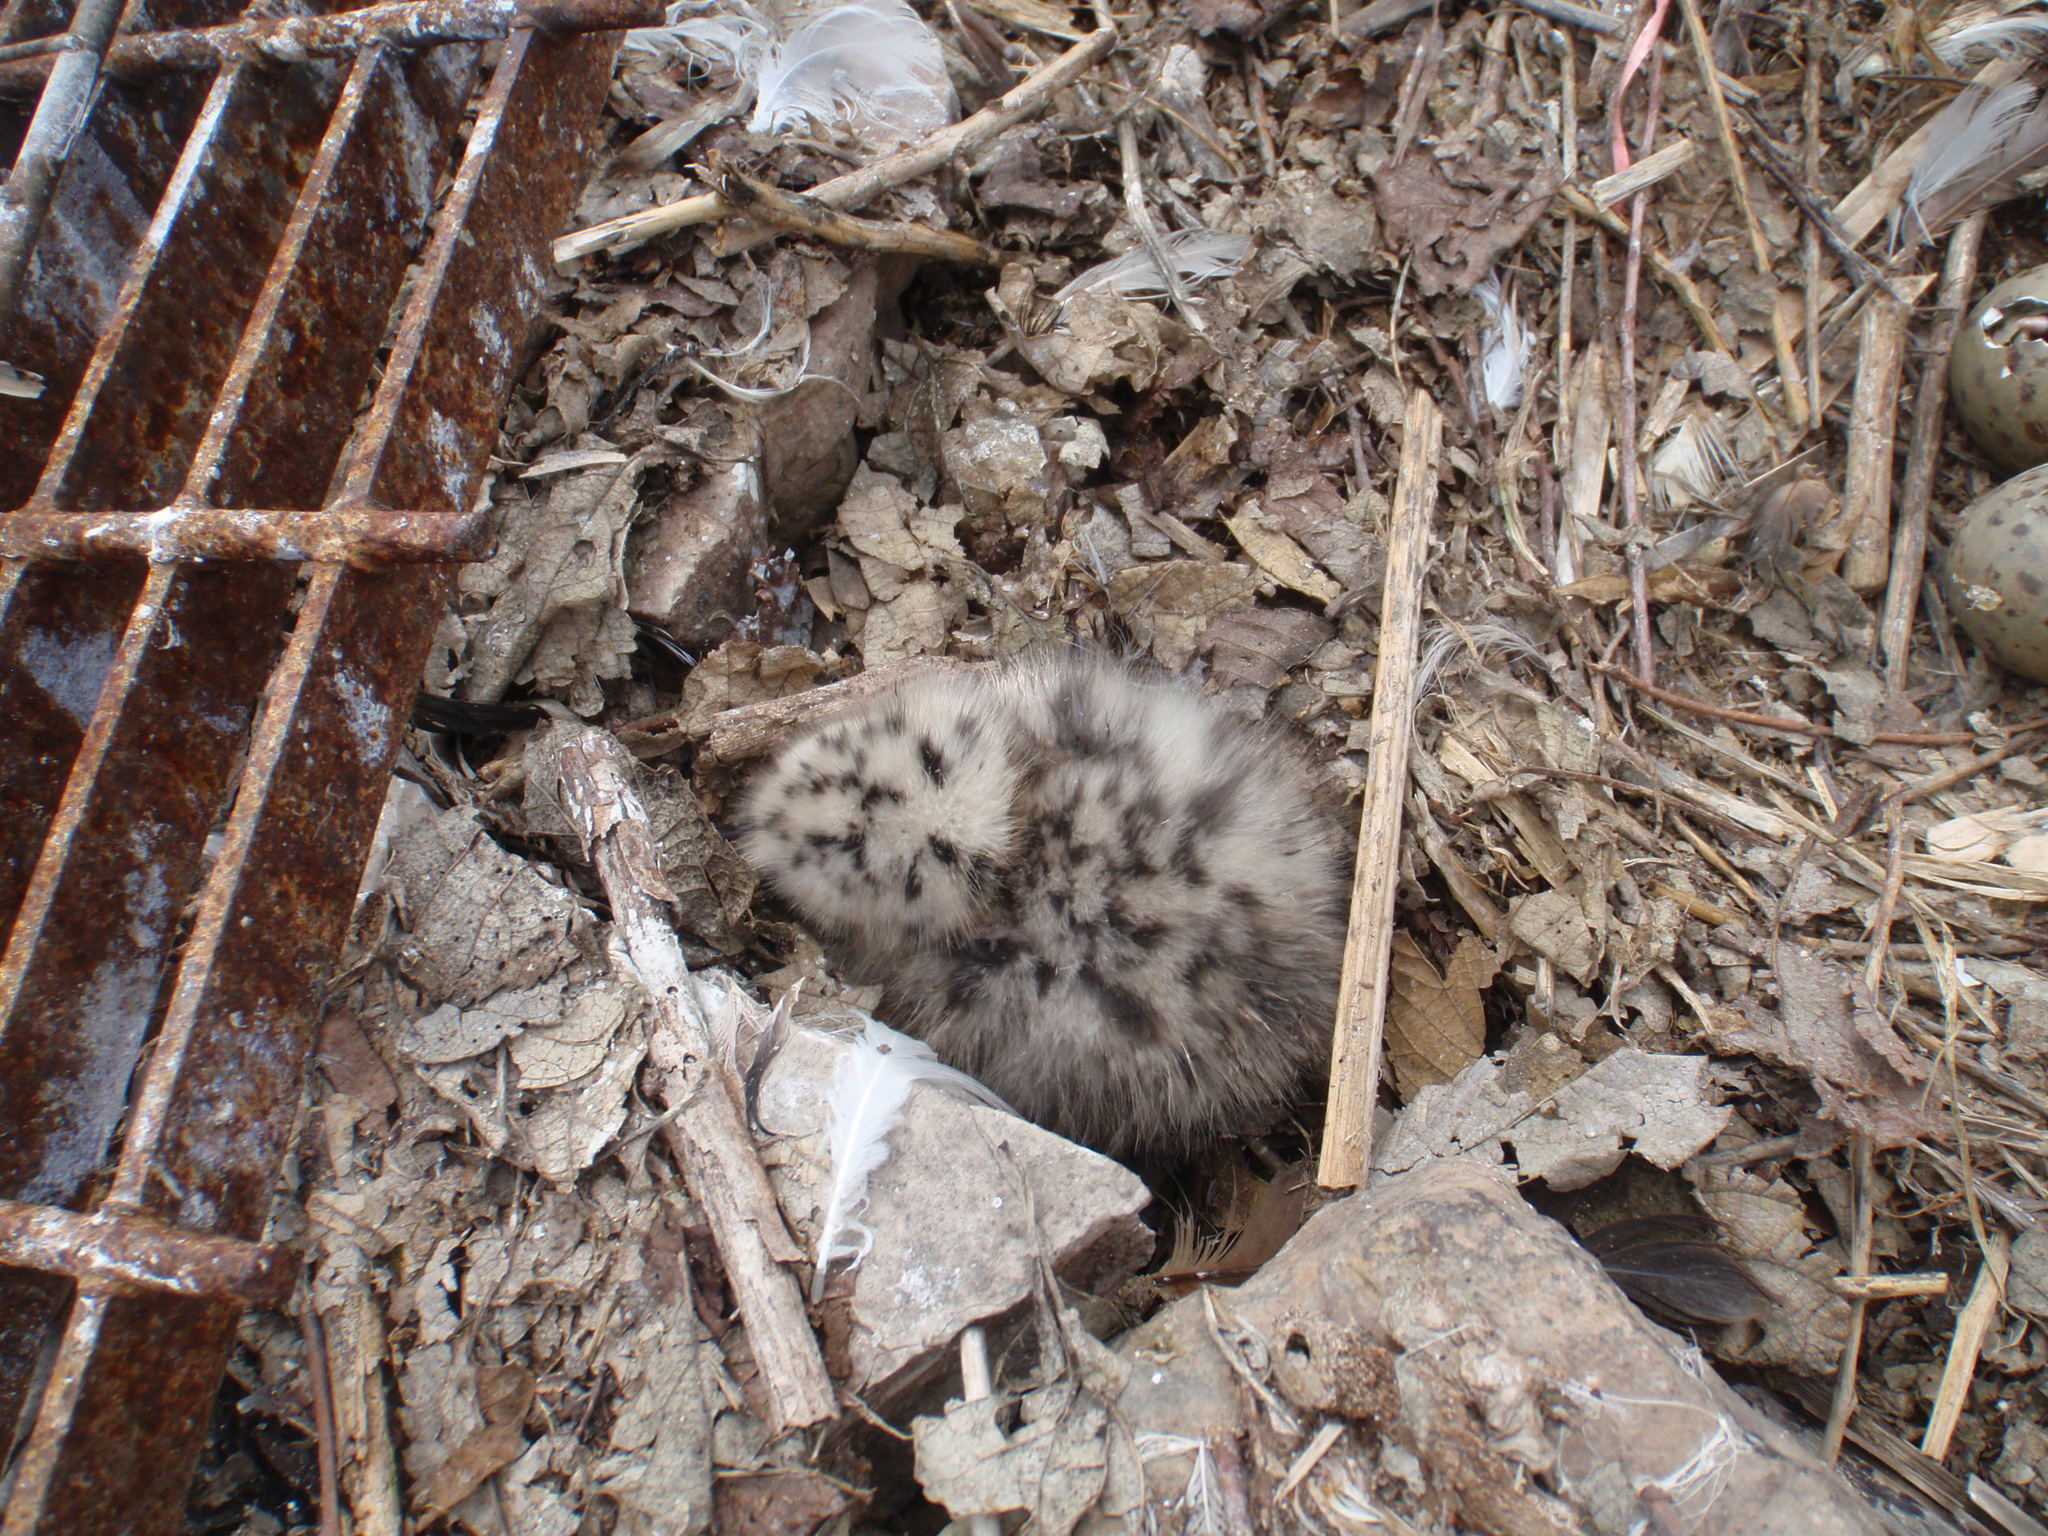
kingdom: Animalia
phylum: Chordata
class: Aves
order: Charadriiformes
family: Laridae
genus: Larus
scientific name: Larus argentatus
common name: Herring gull
